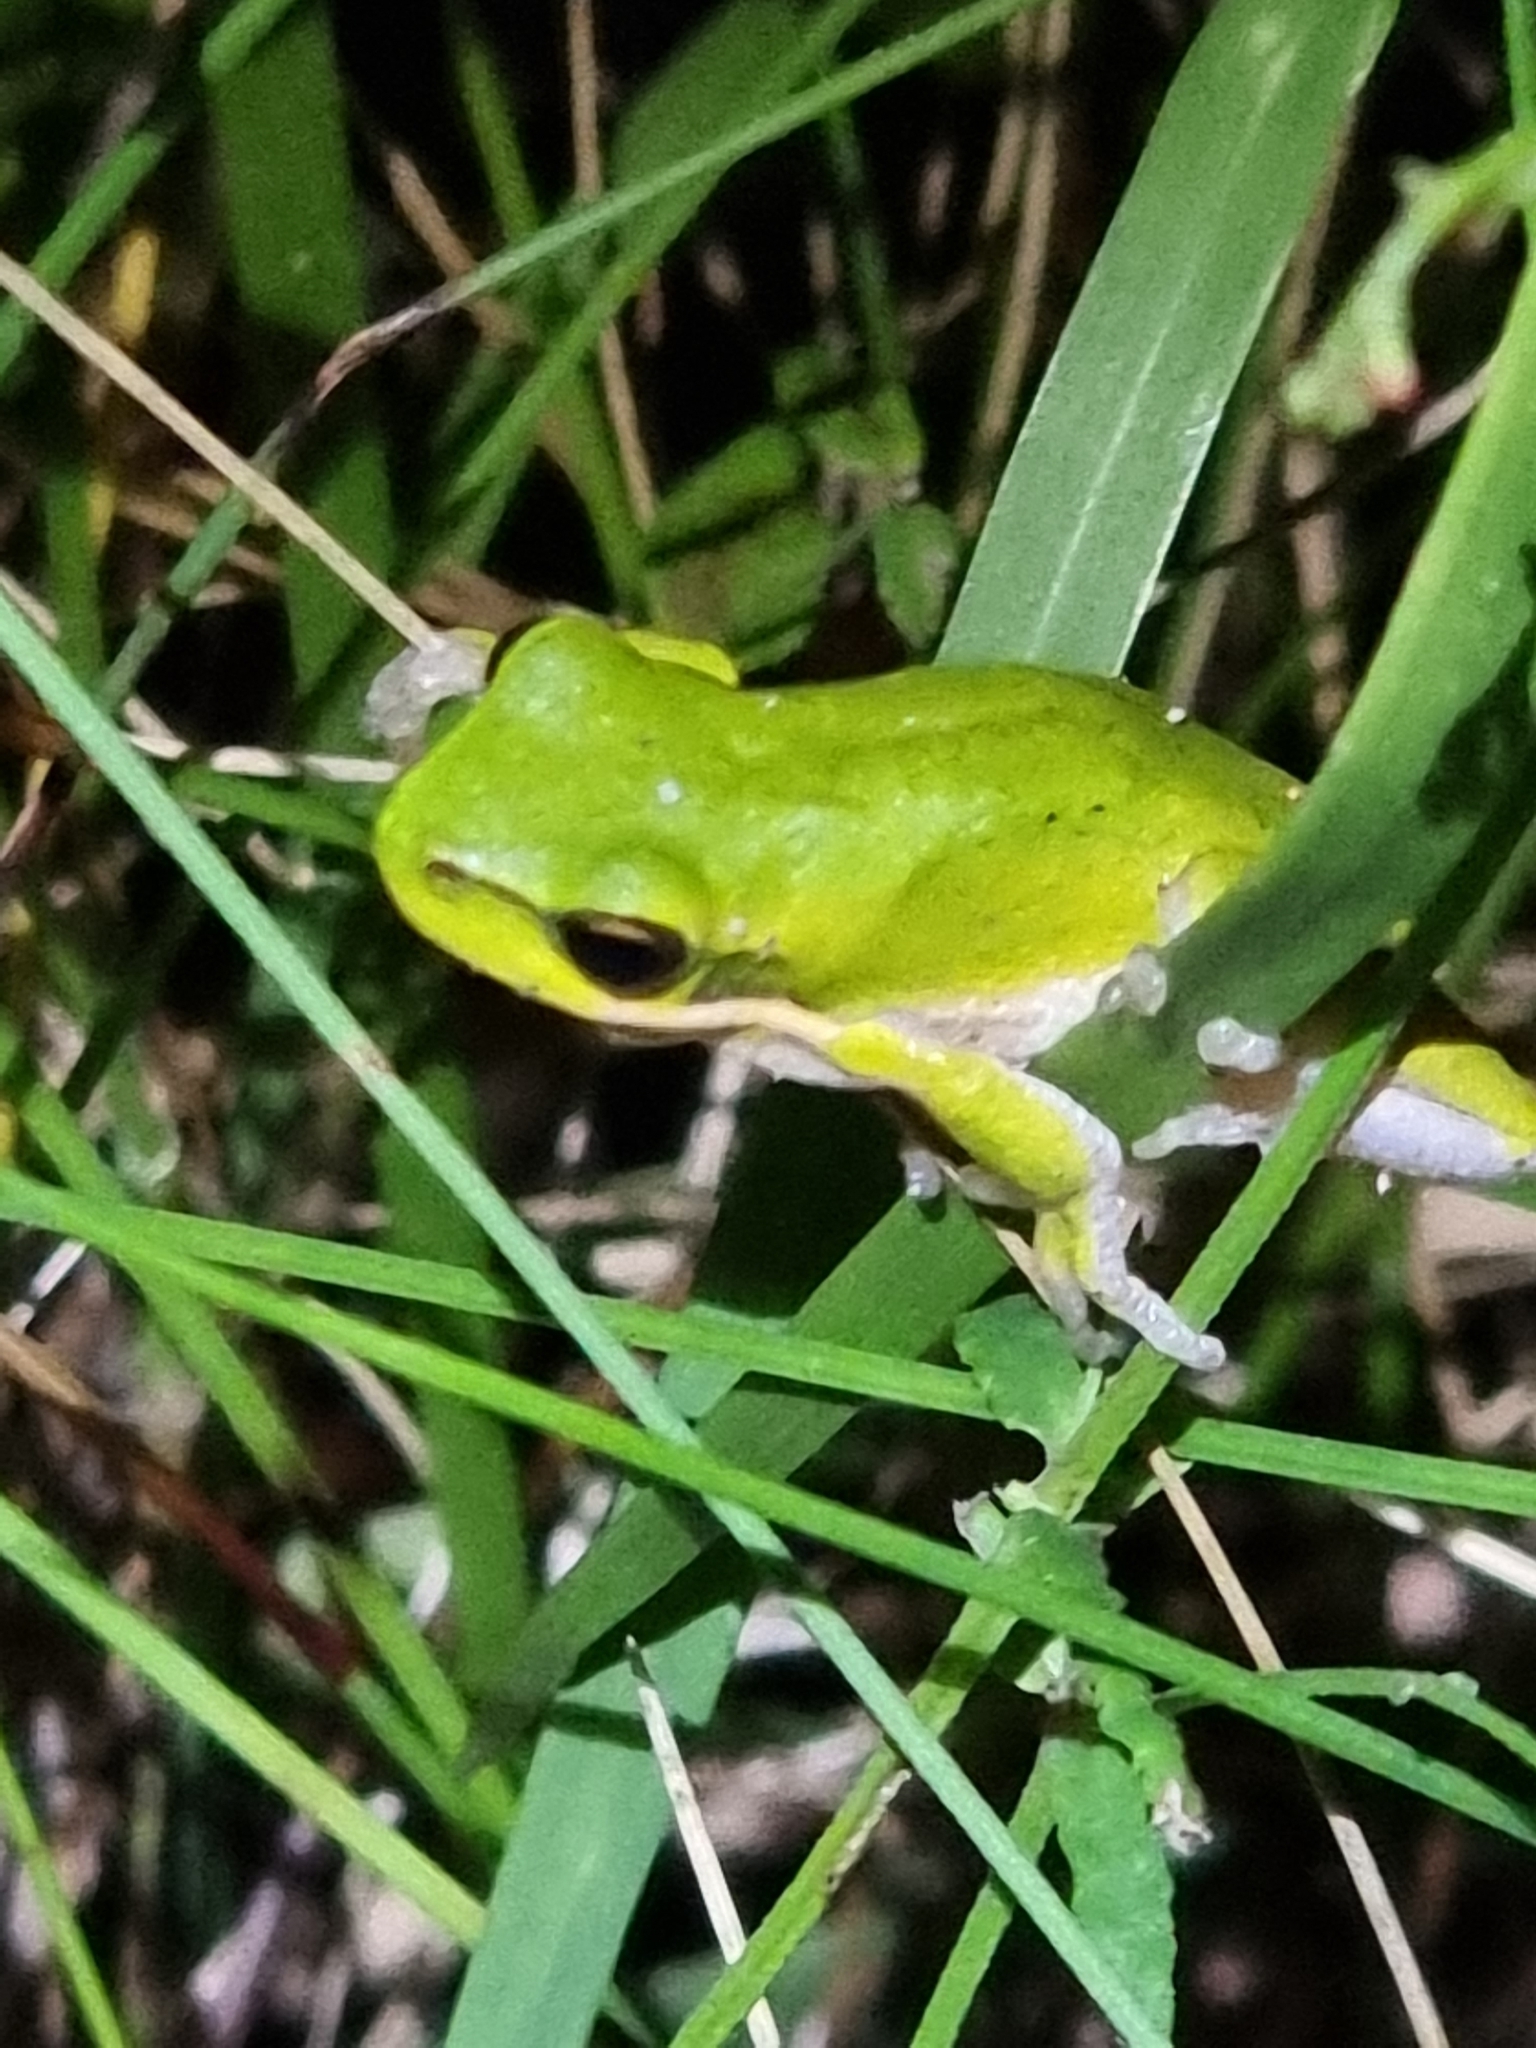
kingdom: Animalia
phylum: Chordata
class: Amphibia
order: Anura
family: Pelodryadidae
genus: Litoria
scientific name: Litoria fallax
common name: Eastern dwarf treefrog
